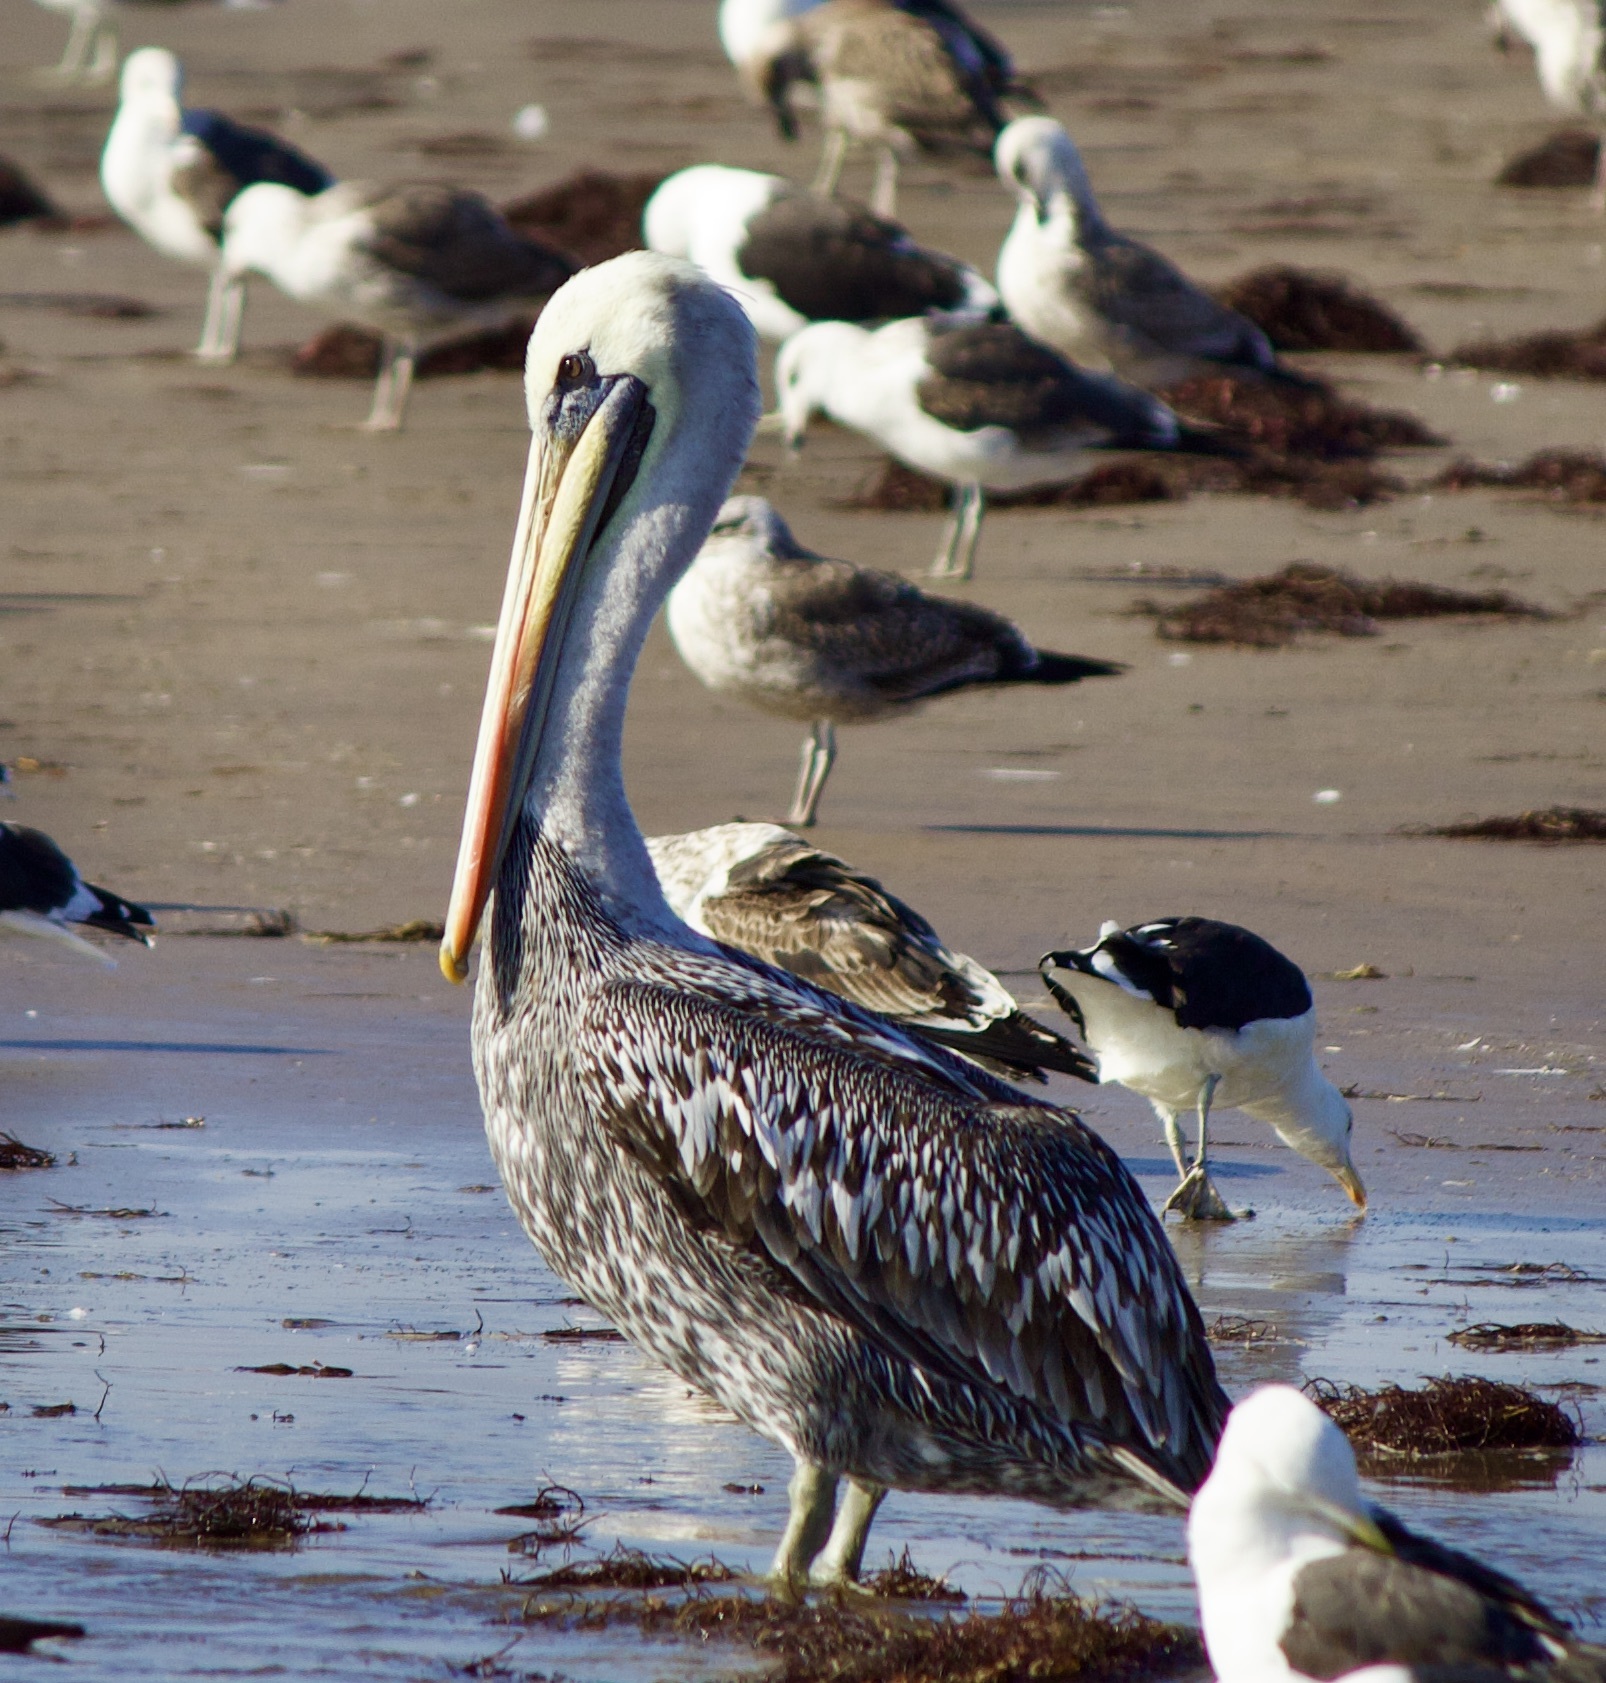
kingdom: Animalia
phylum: Chordata
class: Aves
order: Pelecaniformes
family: Pelecanidae
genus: Pelecanus
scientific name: Pelecanus thagus
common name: Peruvian pelican
